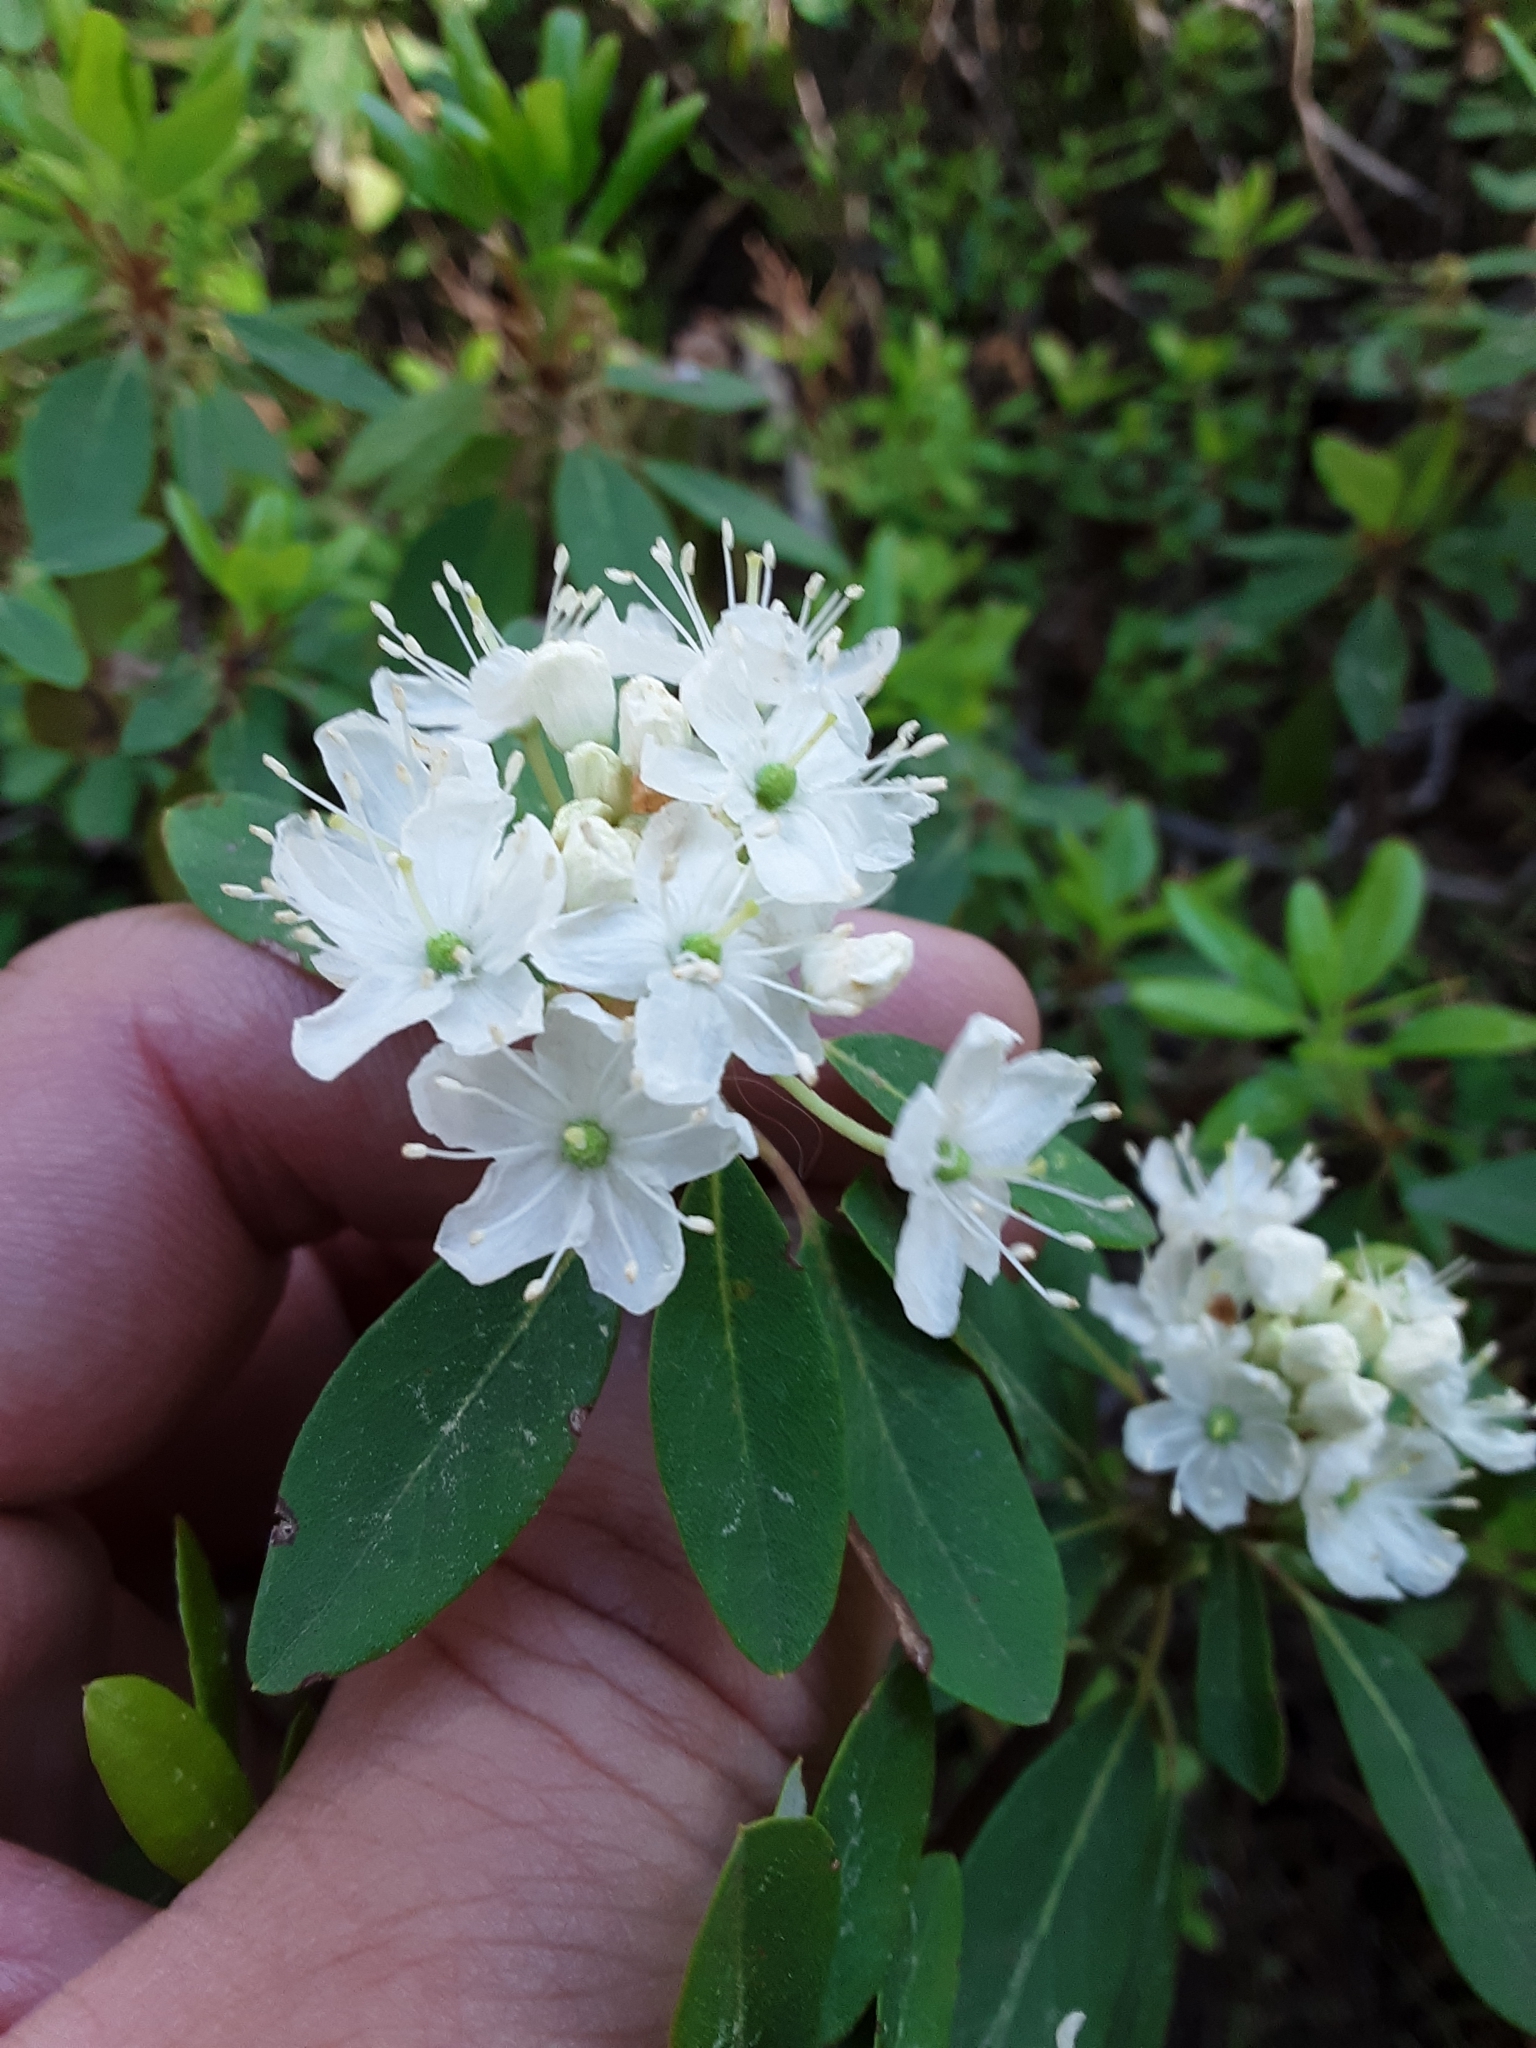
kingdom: Plantae
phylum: Tracheophyta
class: Magnoliopsida
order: Ericales
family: Ericaceae
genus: Rhododendron
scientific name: Rhododendron columbianum
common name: Western labrador tea
